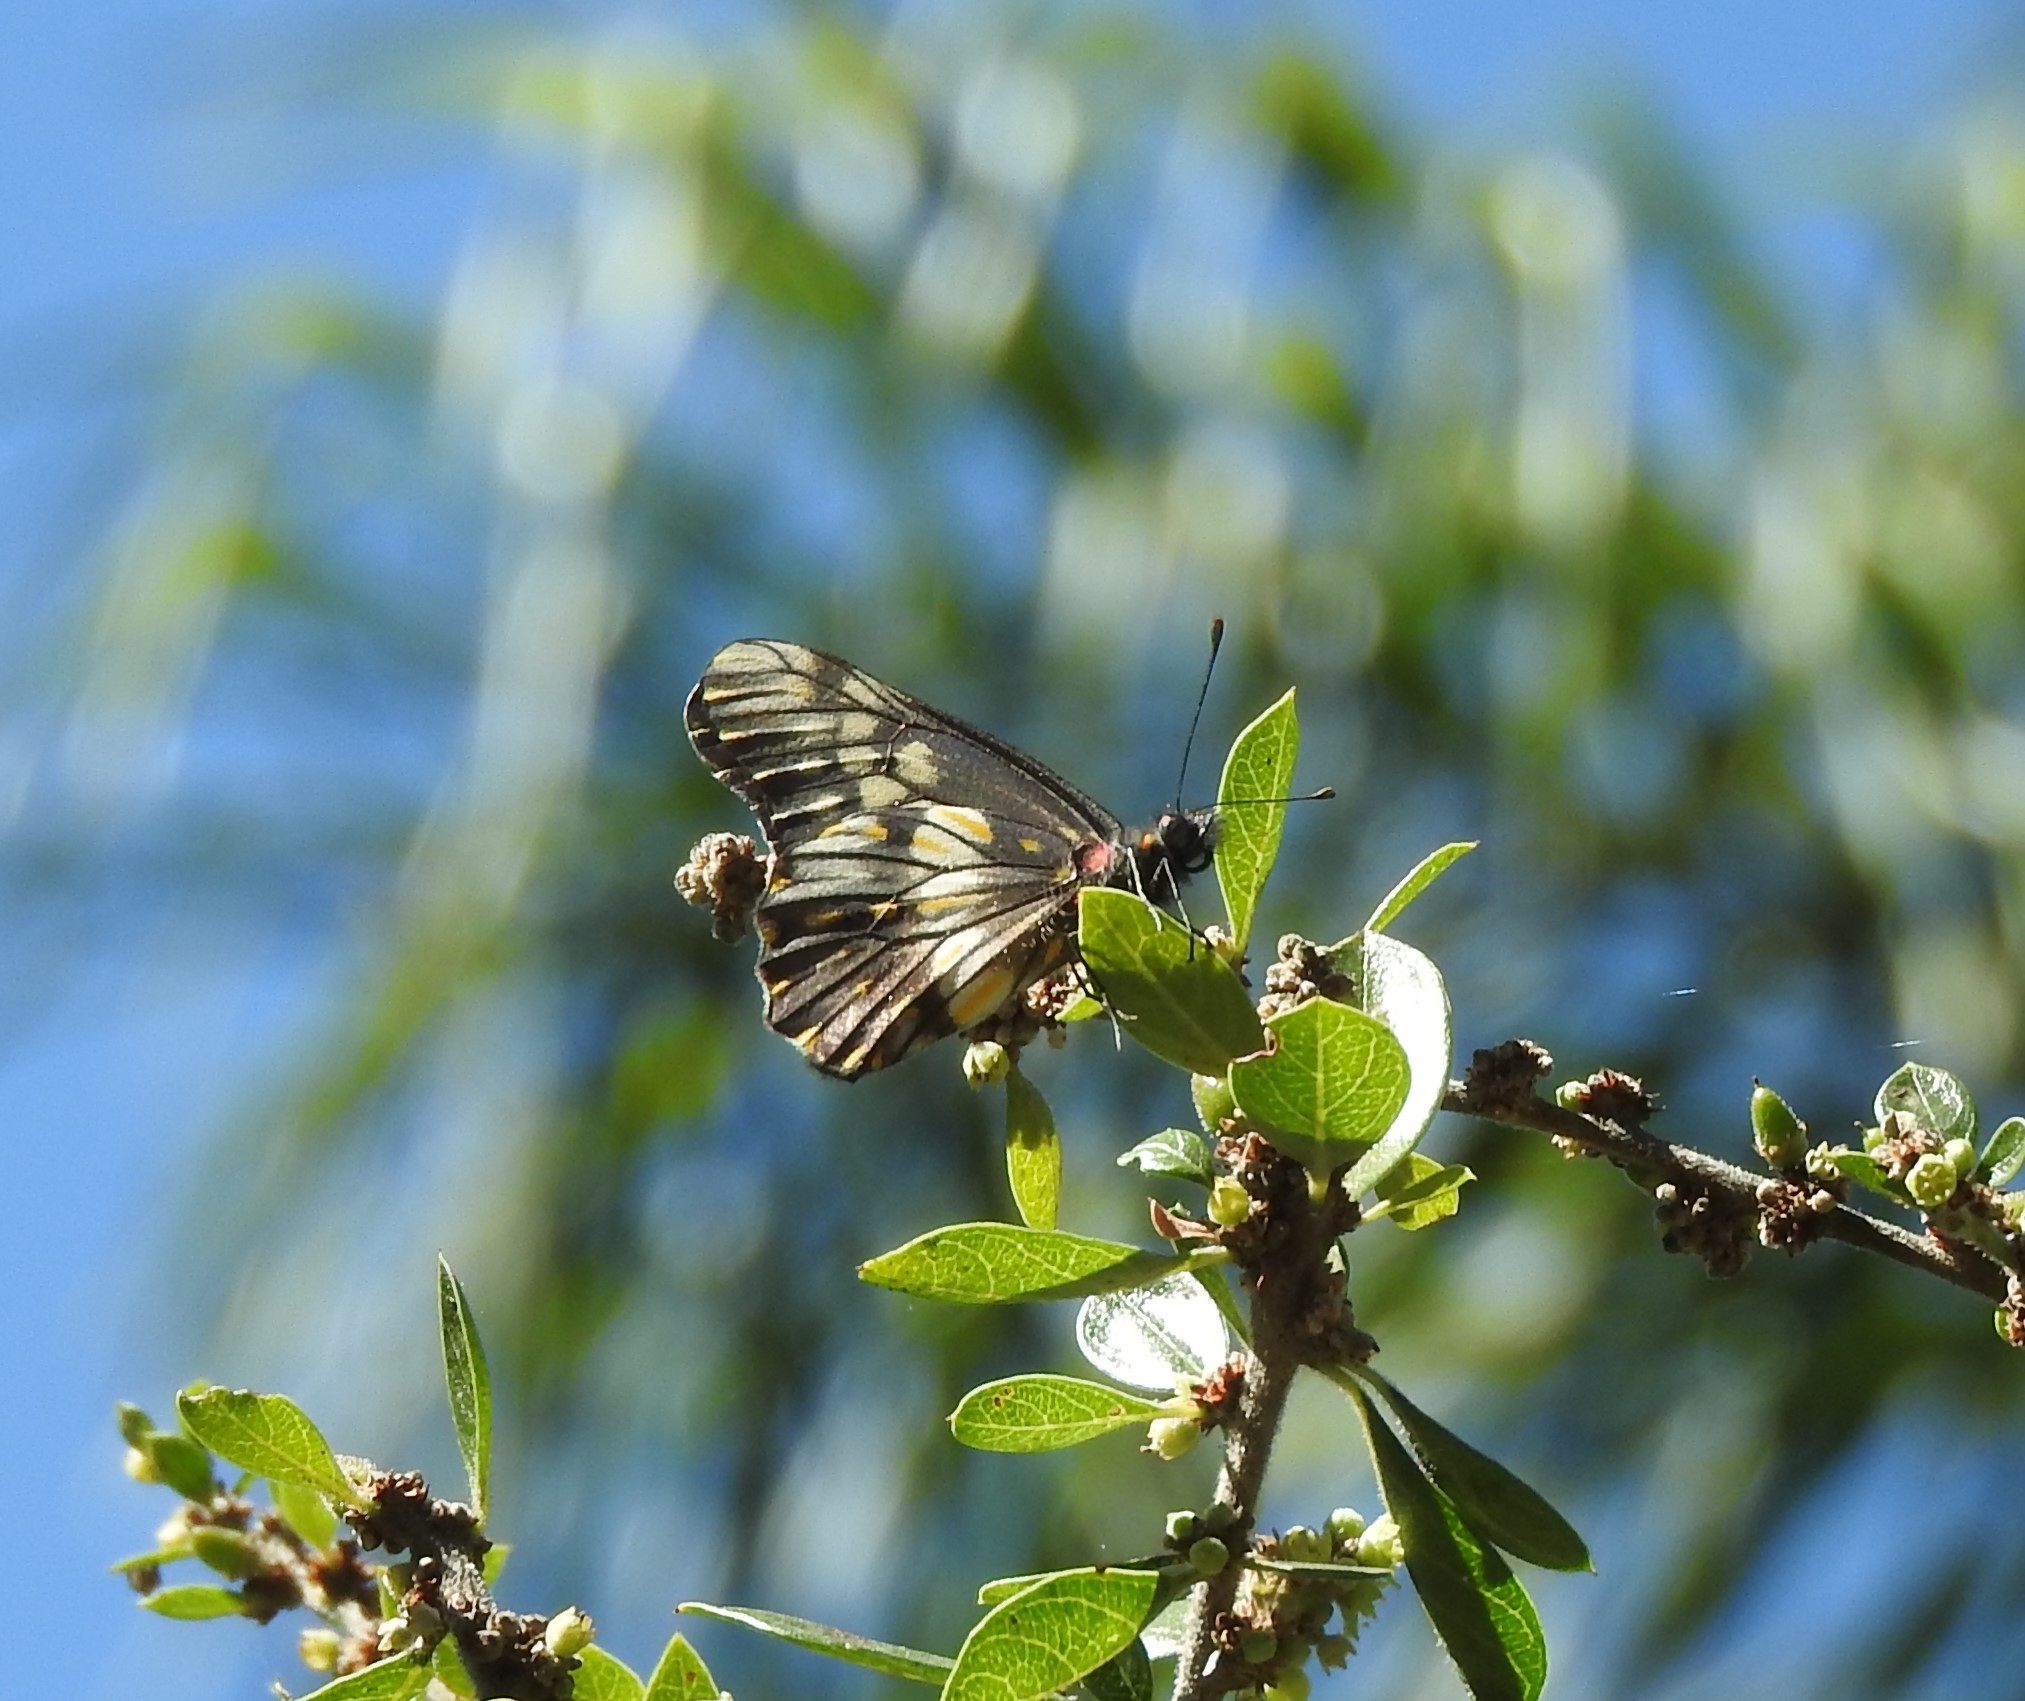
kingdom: Animalia
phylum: Arthropoda
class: Insecta
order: Lepidoptera
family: Pieridae
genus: Archonias
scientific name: Archonias nimbice
